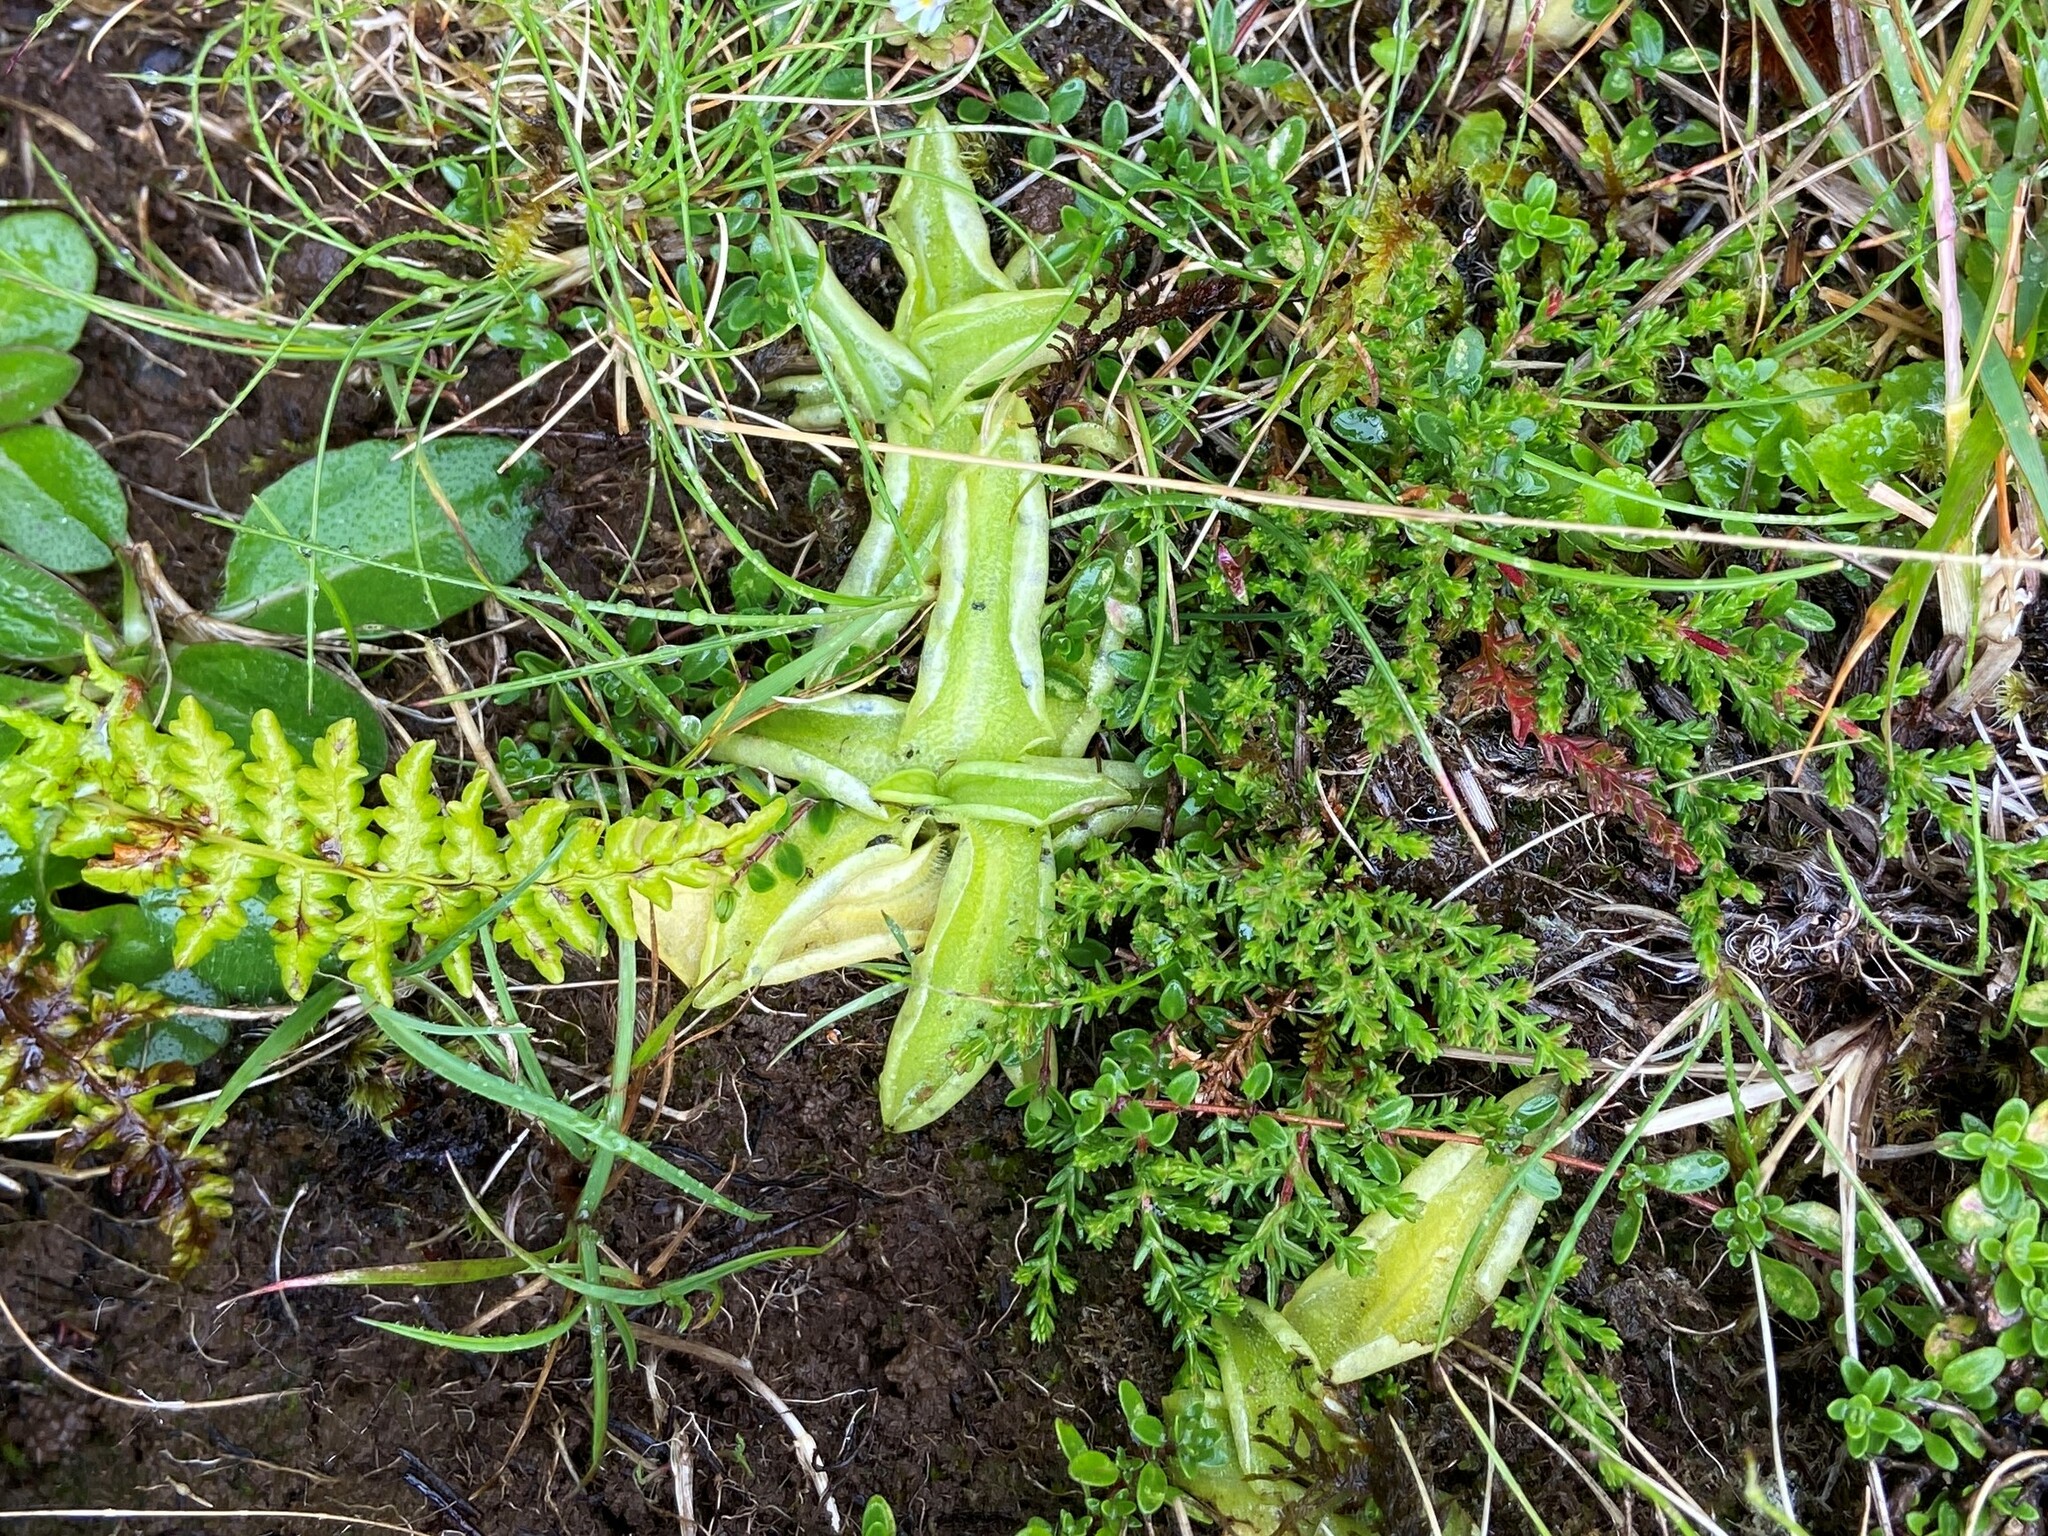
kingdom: Plantae
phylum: Tracheophyta
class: Magnoliopsida
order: Lamiales
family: Lentibulariaceae
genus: Pinguicula
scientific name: Pinguicula vulgaris
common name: Common butterwort
